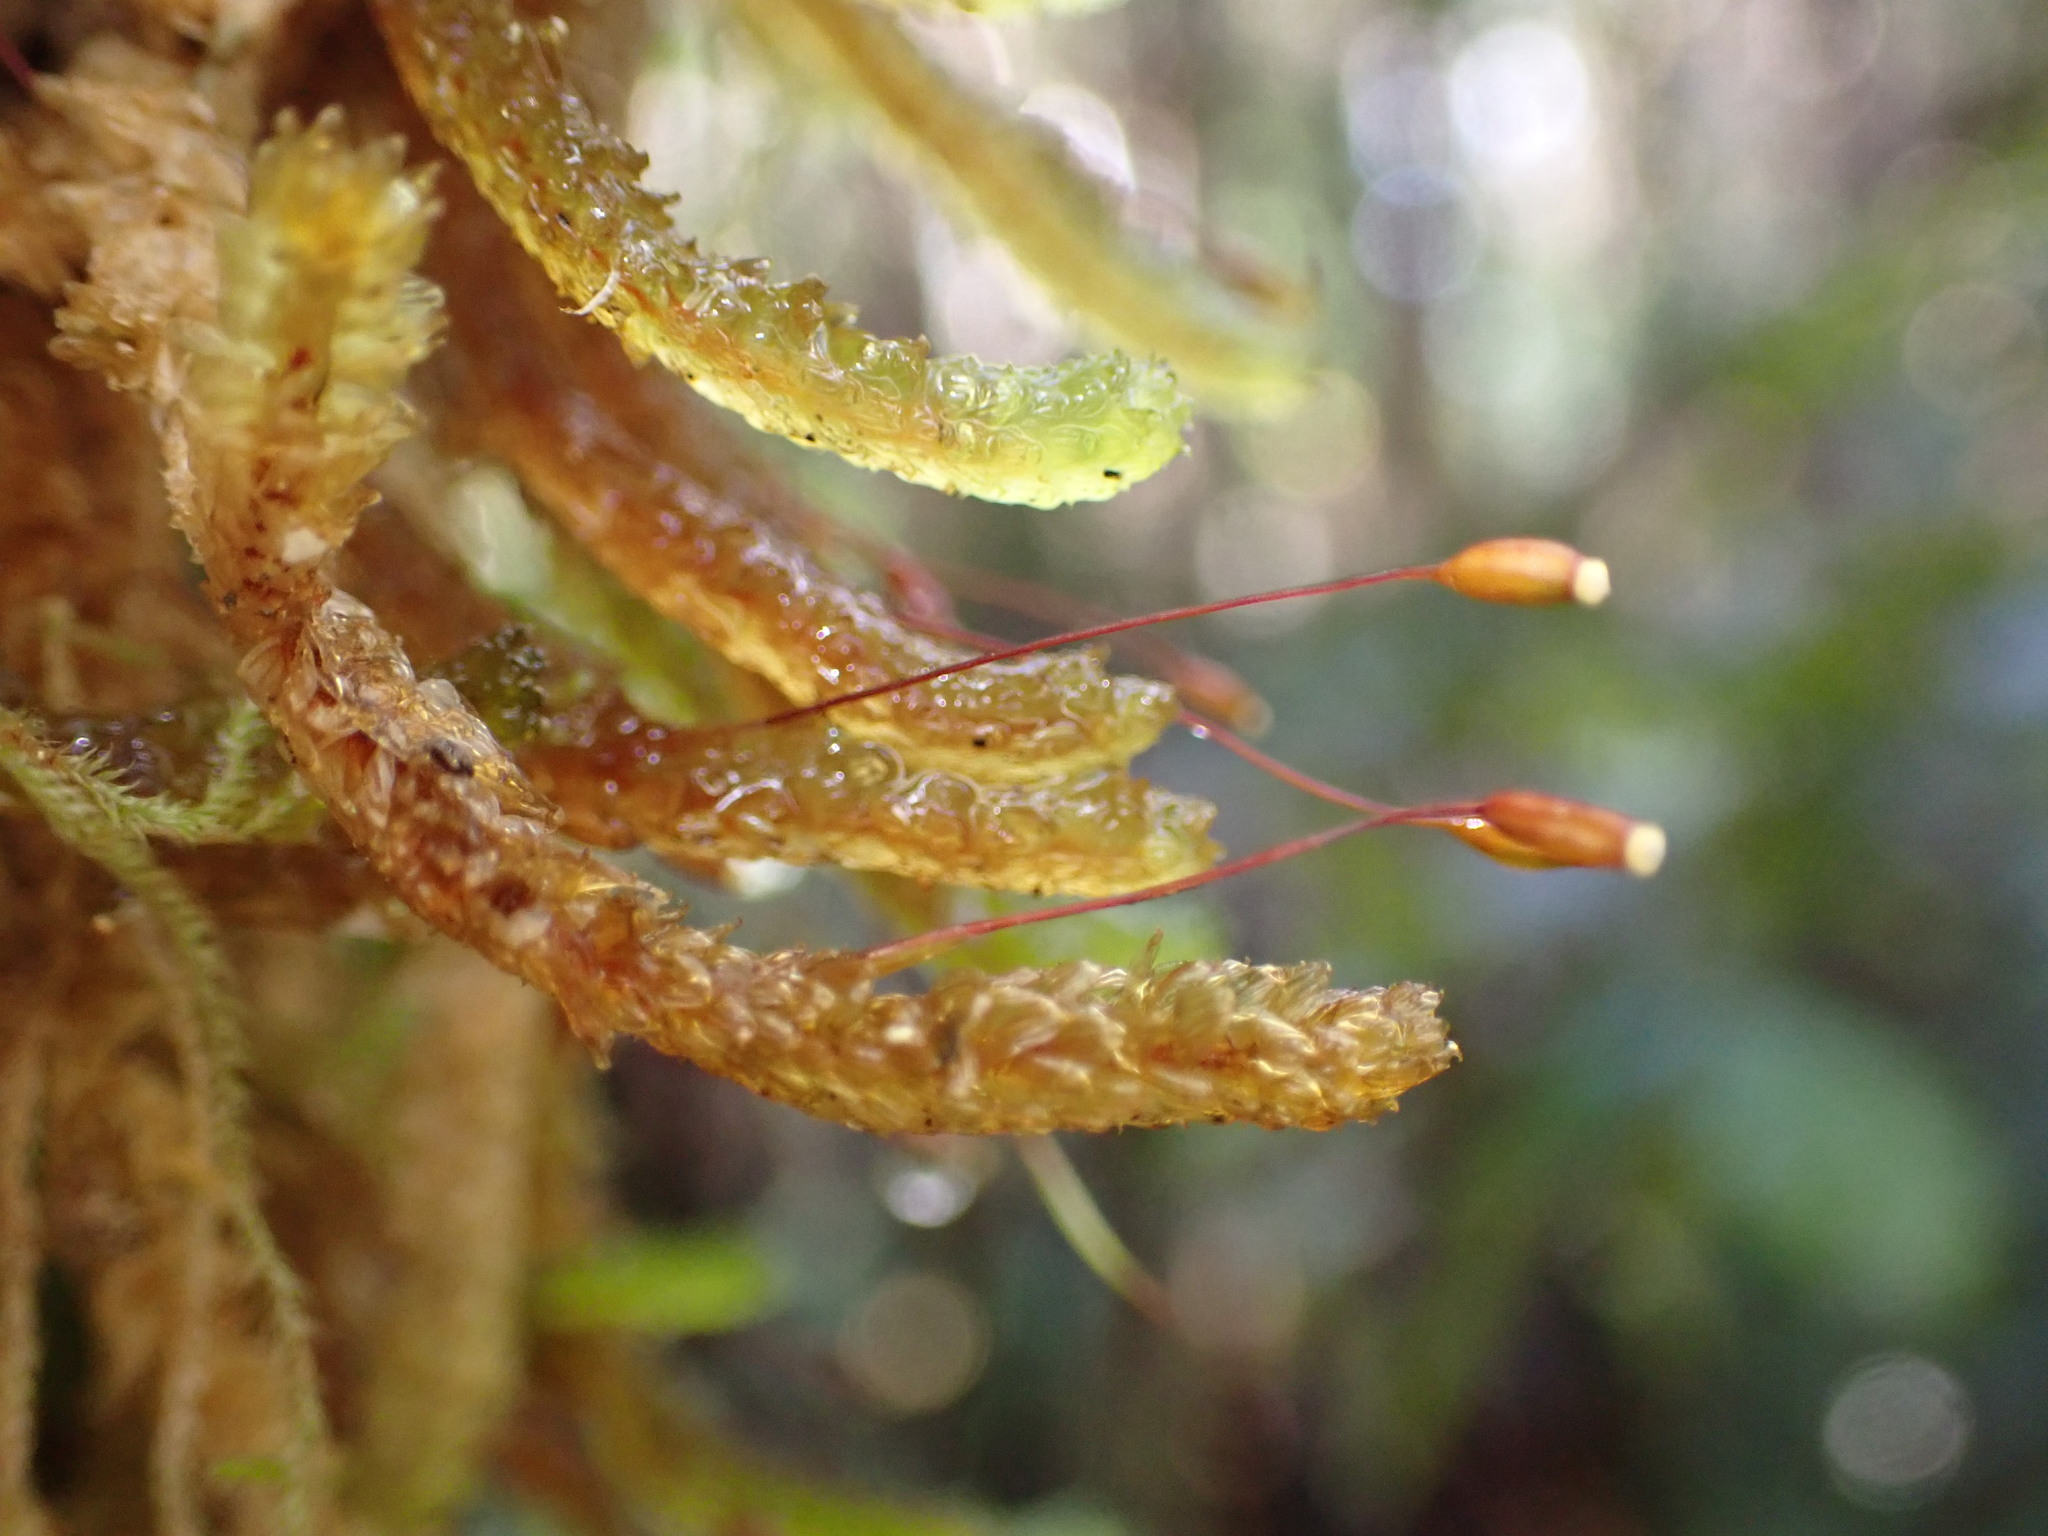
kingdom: Plantae
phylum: Bryophyta
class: Bryopsida
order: Ptychomniales
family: Ptychomniaceae
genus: Cladomnion
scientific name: Cladomnion ericoides
